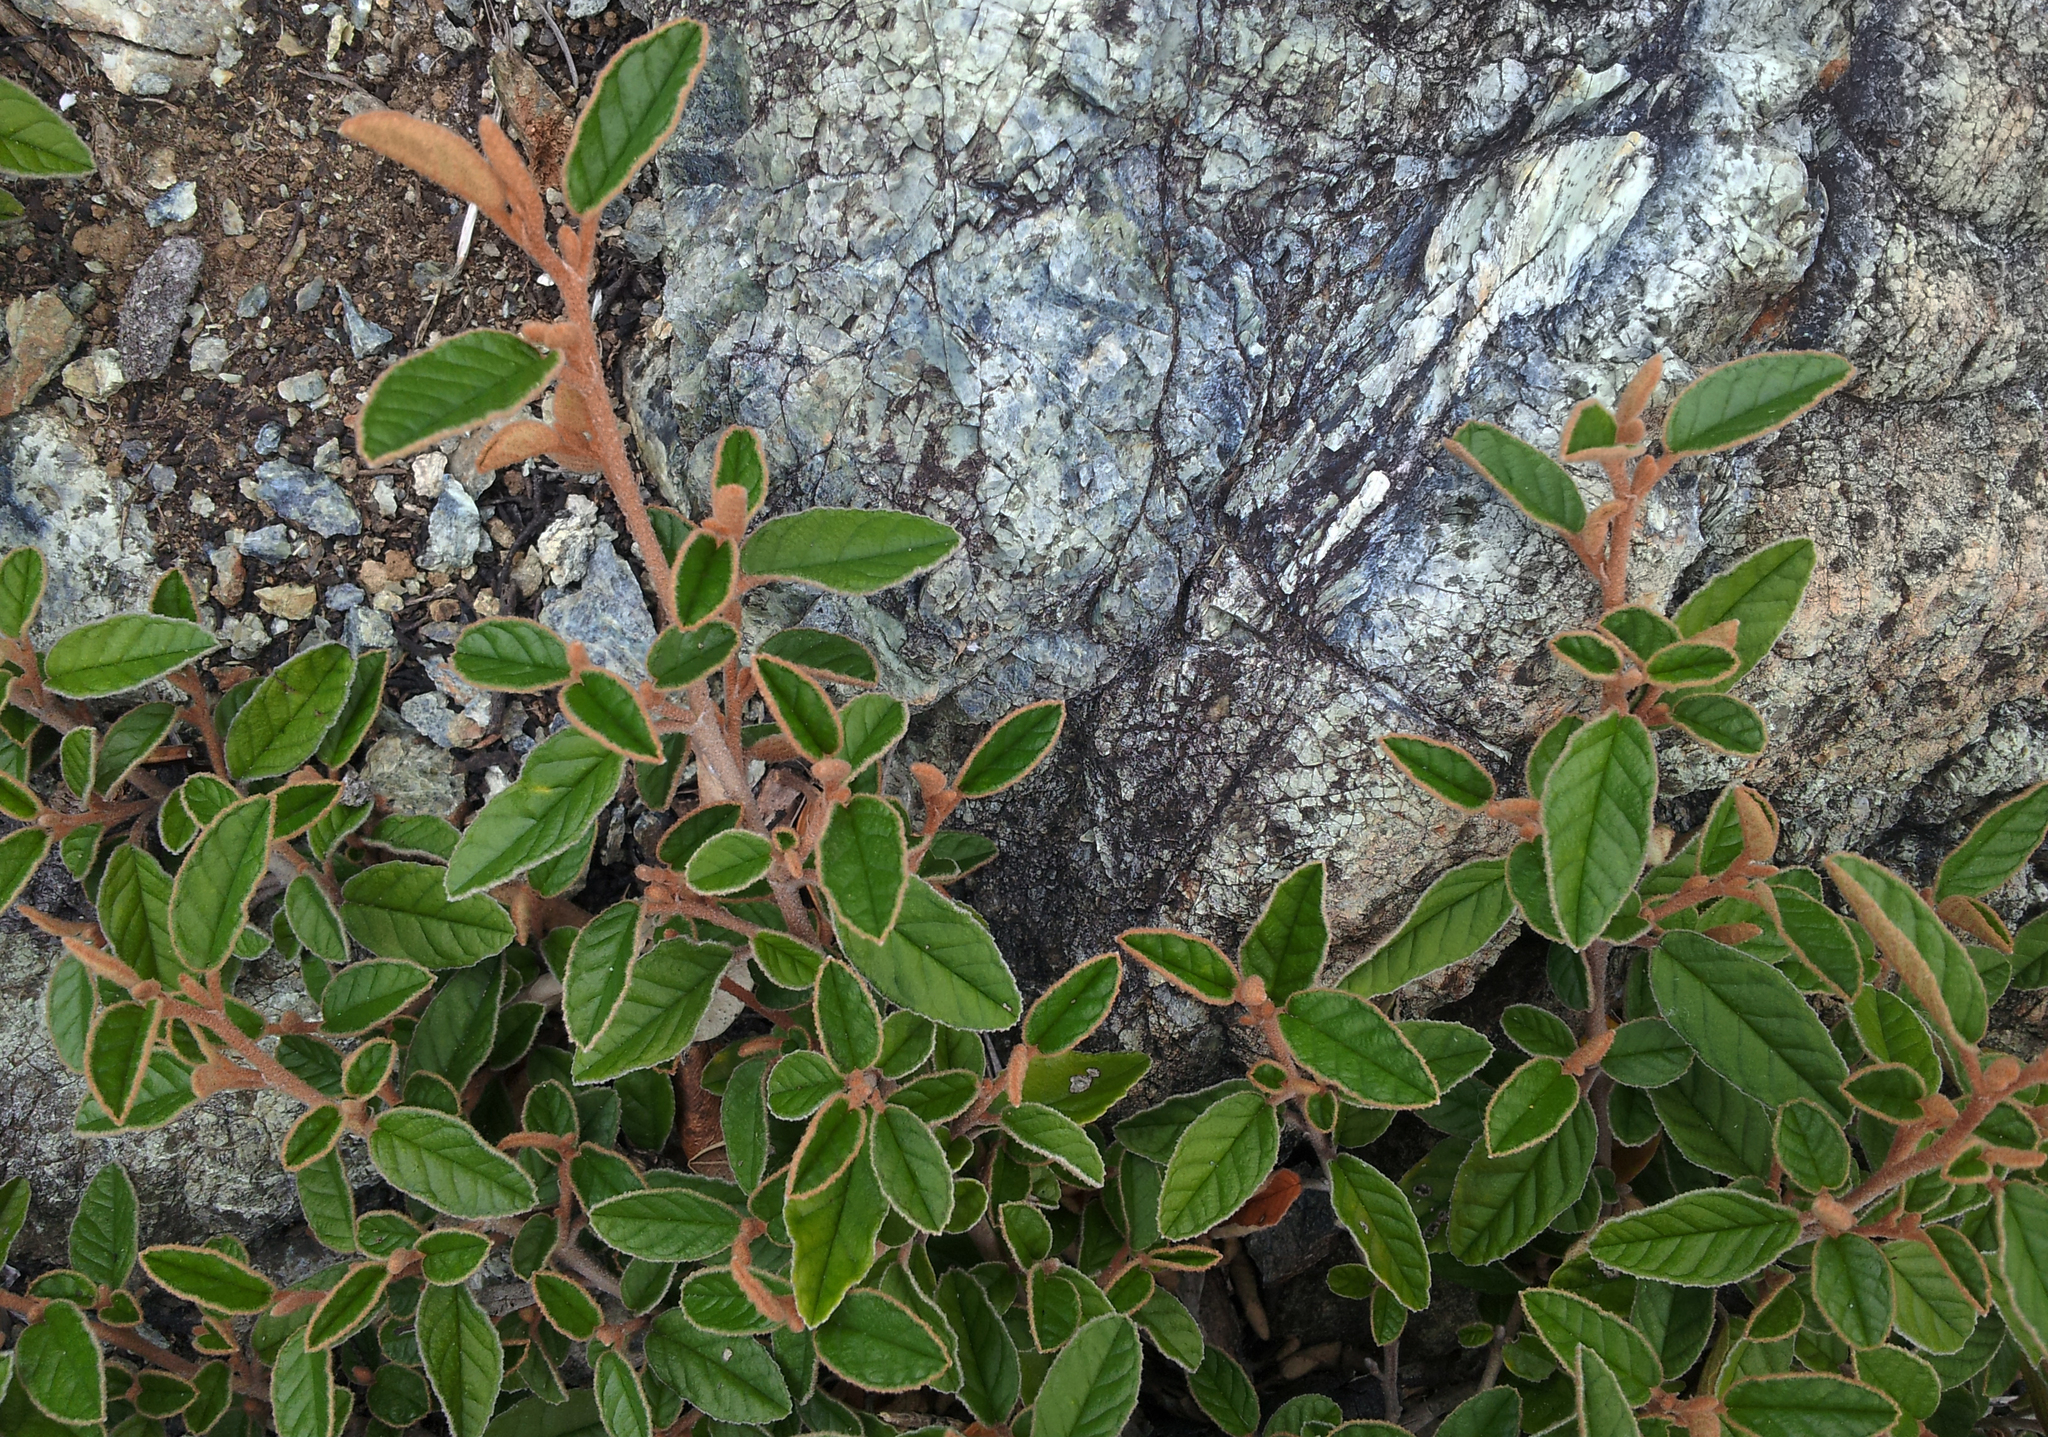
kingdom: Plantae
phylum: Tracheophyta
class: Magnoliopsida
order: Rosales
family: Rhamnaceae
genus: Pomaderris
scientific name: Pomaderris paniculosa
